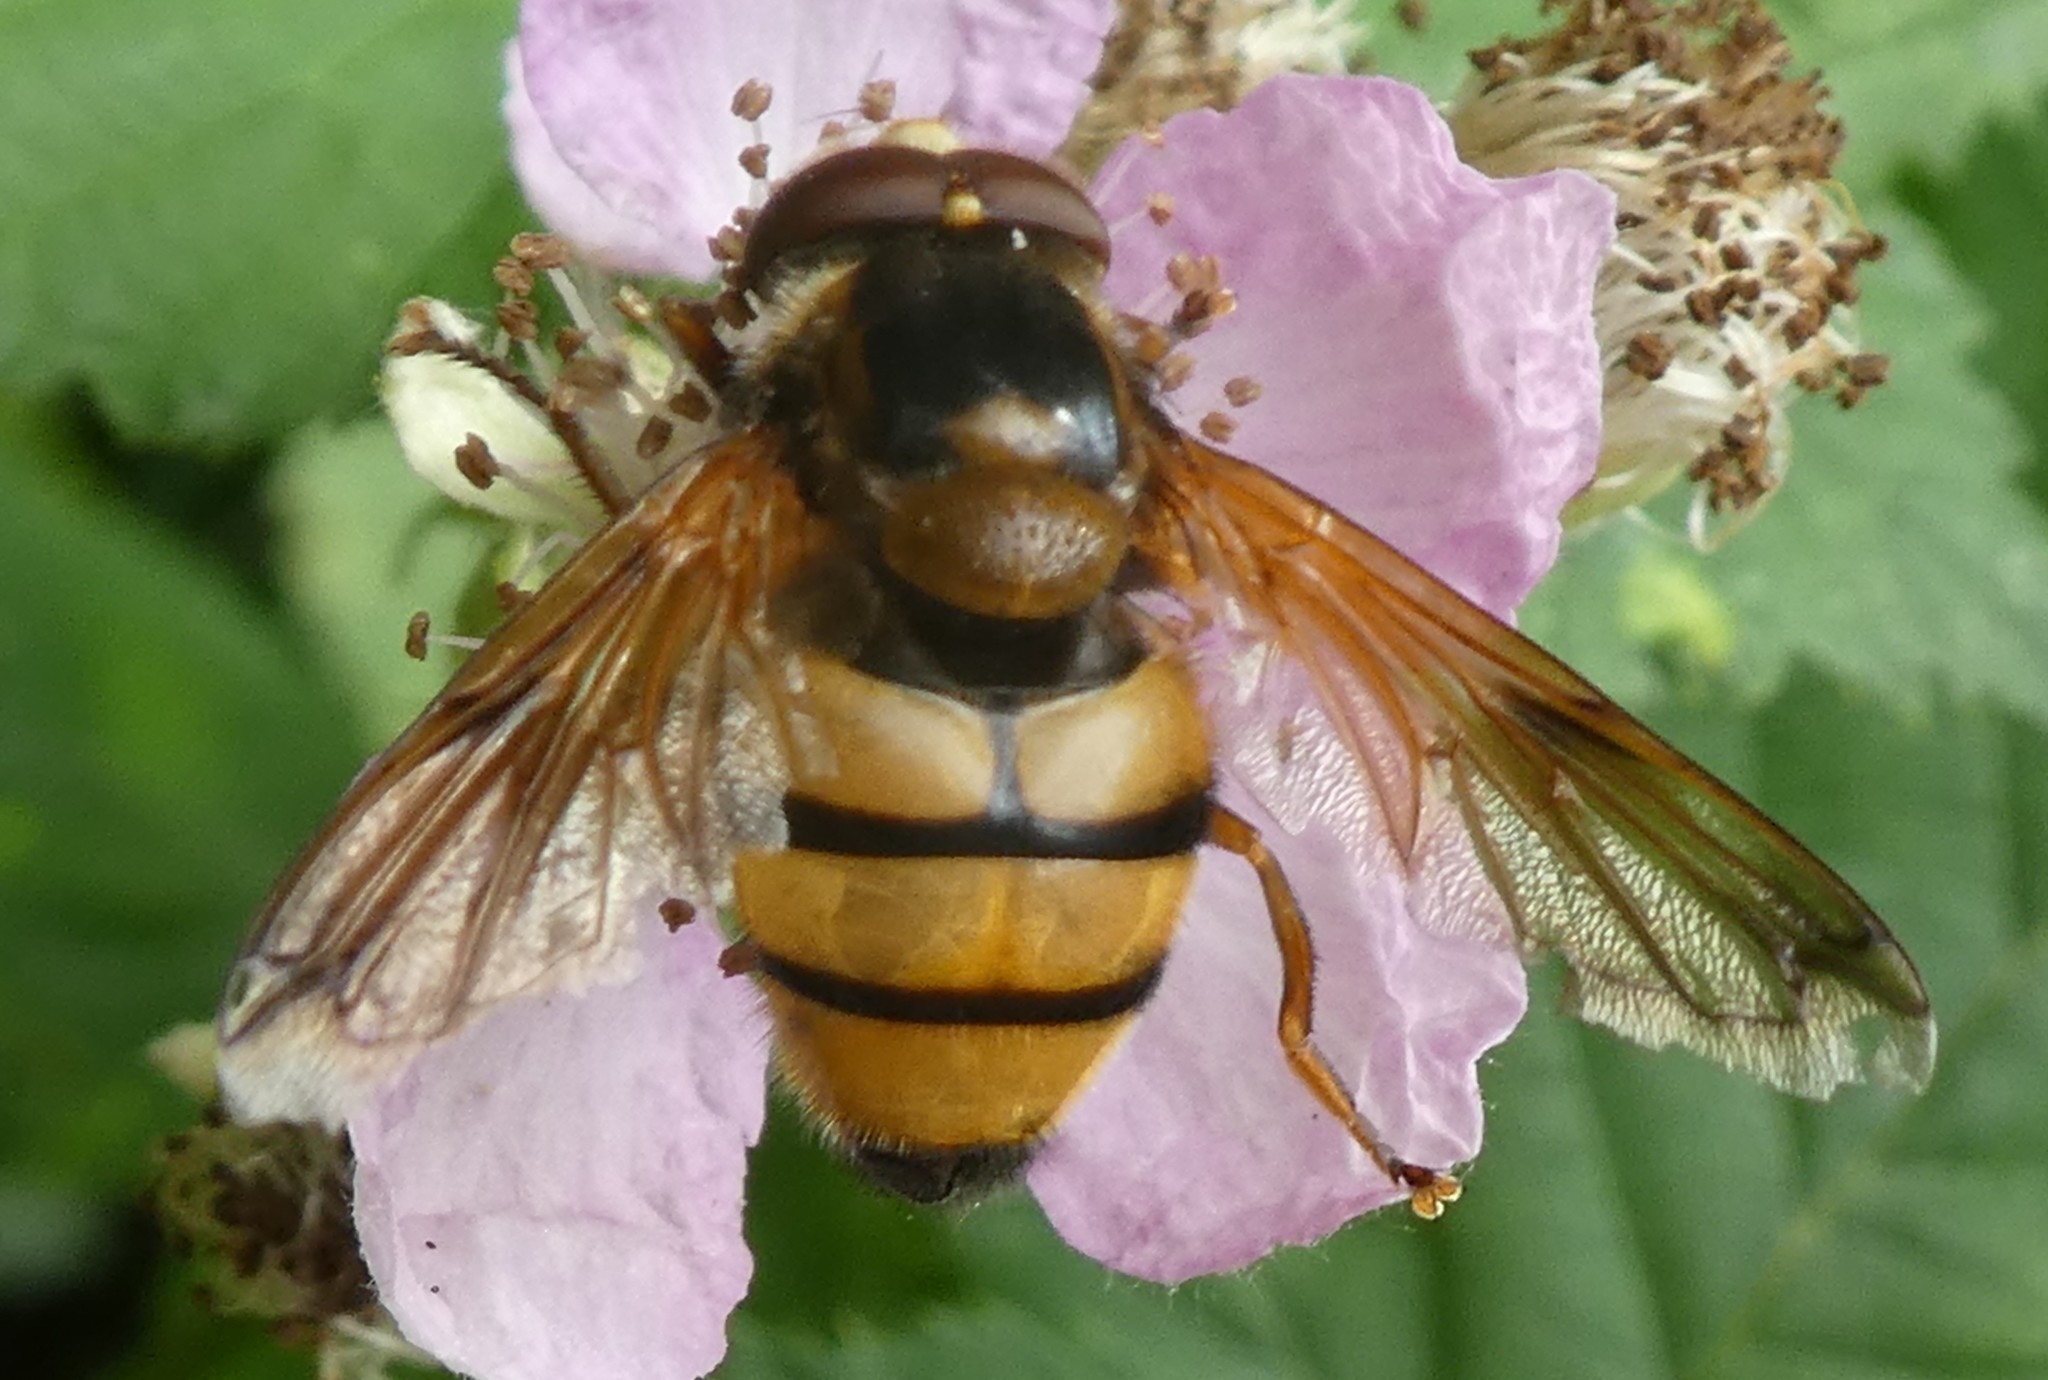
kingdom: Animalia
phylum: Arthropoda
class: Insecta
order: Diptera
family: Syrphidae
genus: Volucella
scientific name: Volucella inanis
